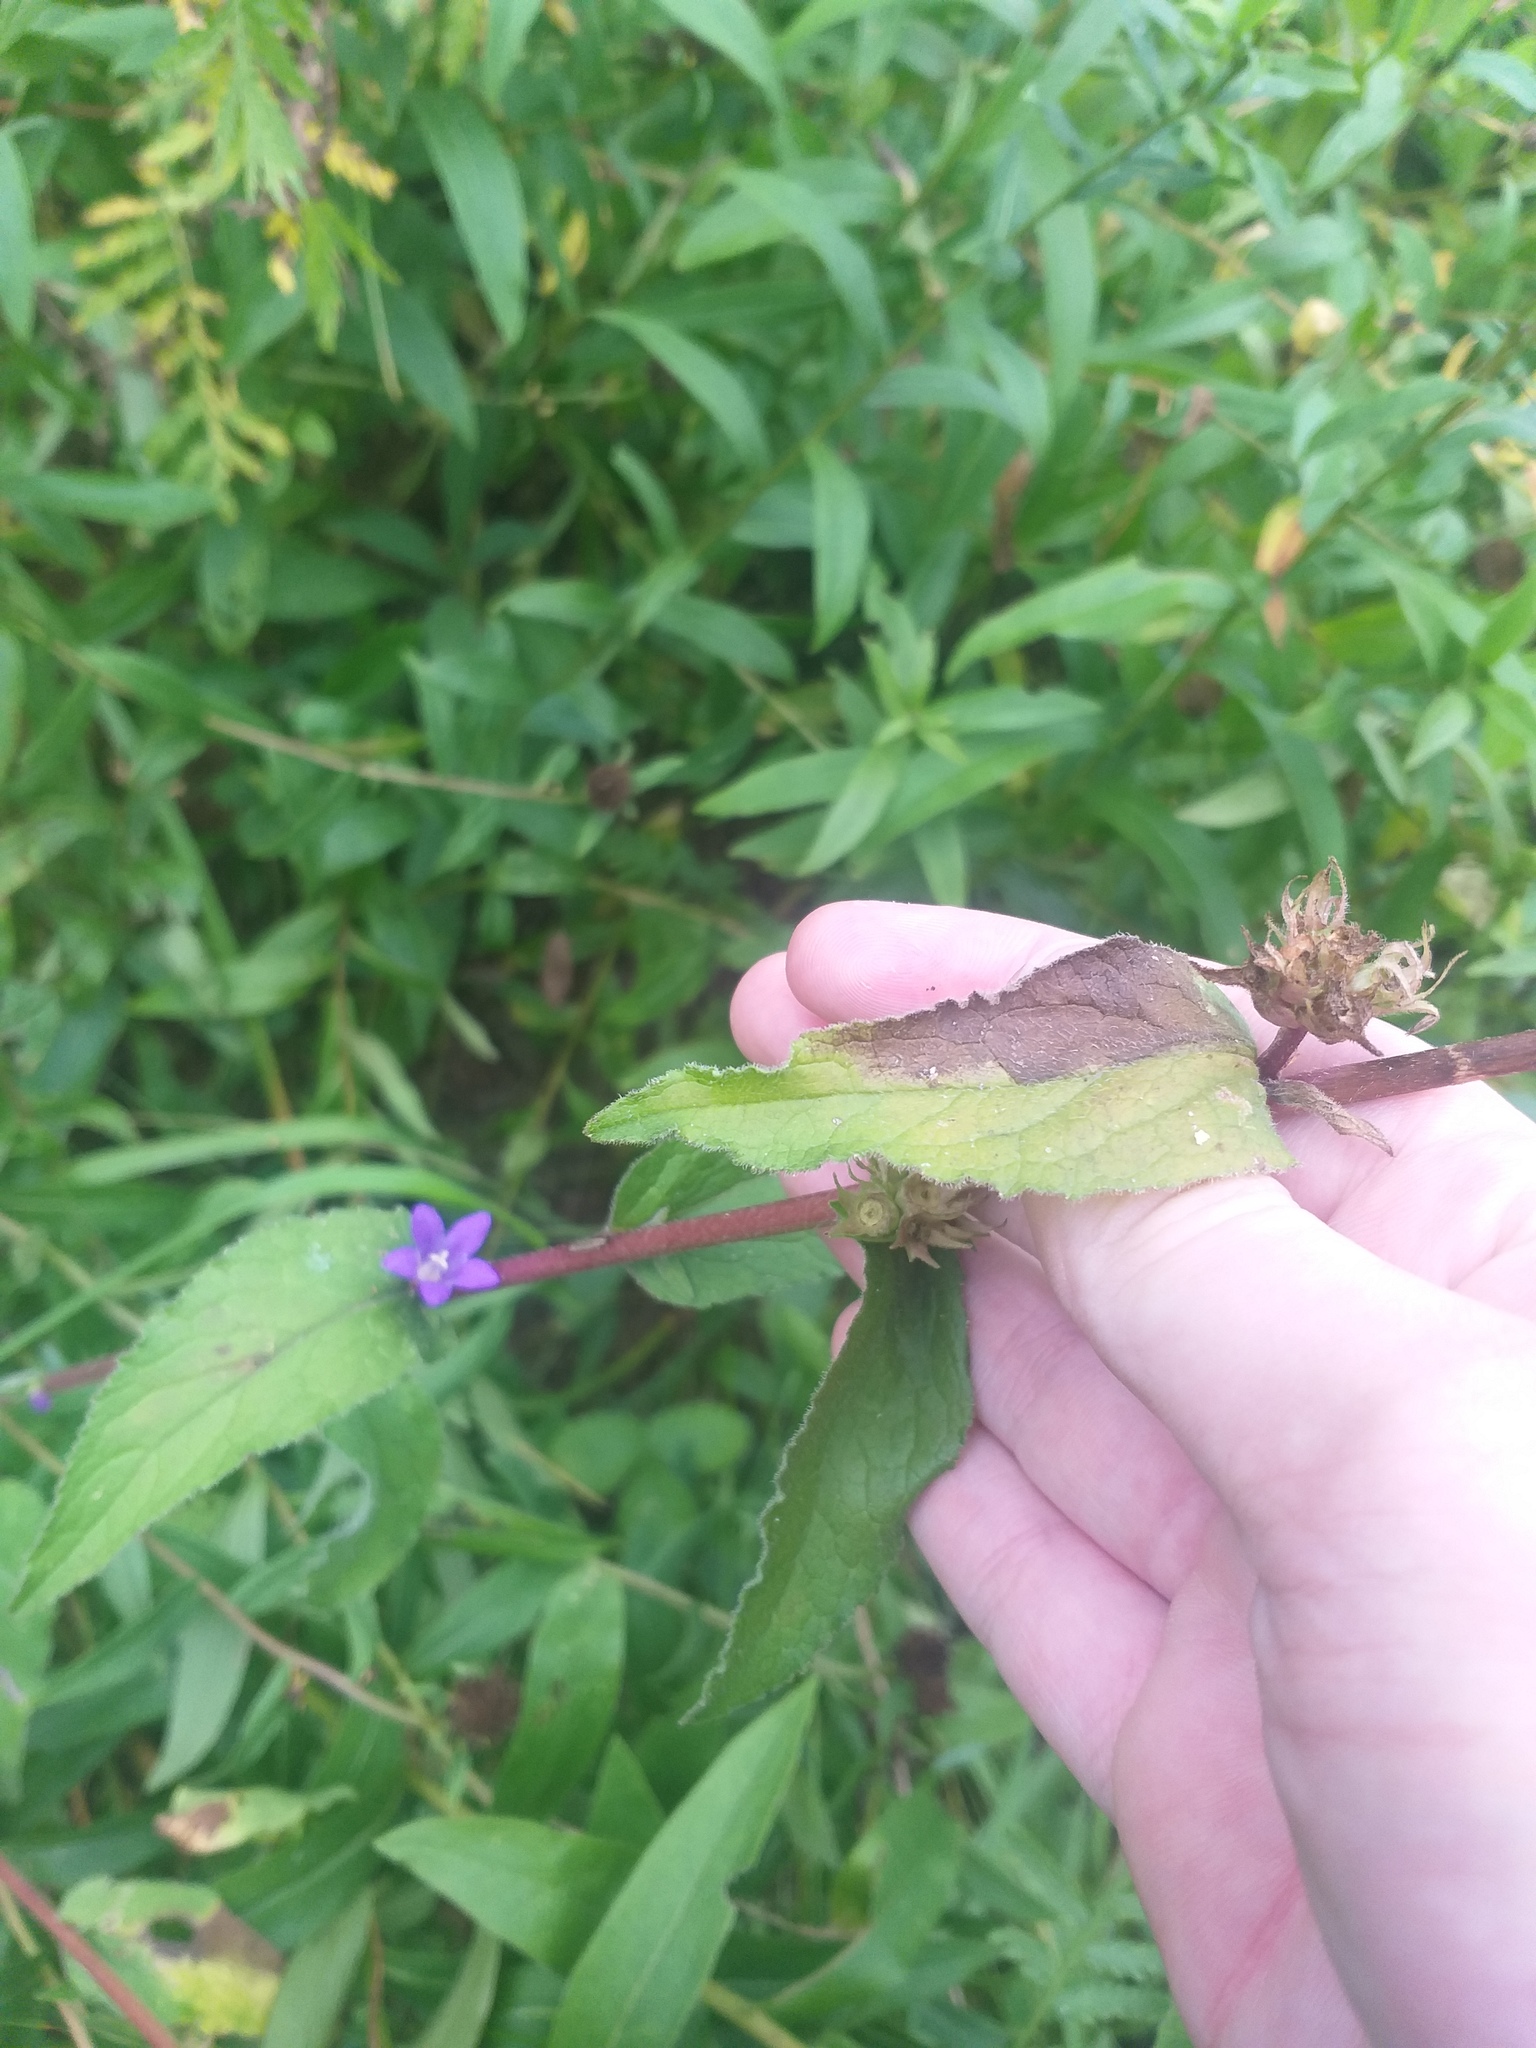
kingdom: Plantae
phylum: Tracheophyta
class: Magnoliopsida
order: Asterales
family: Campanulaceae
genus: Campanula
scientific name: Campanula glomerata
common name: Clustered bellflower
